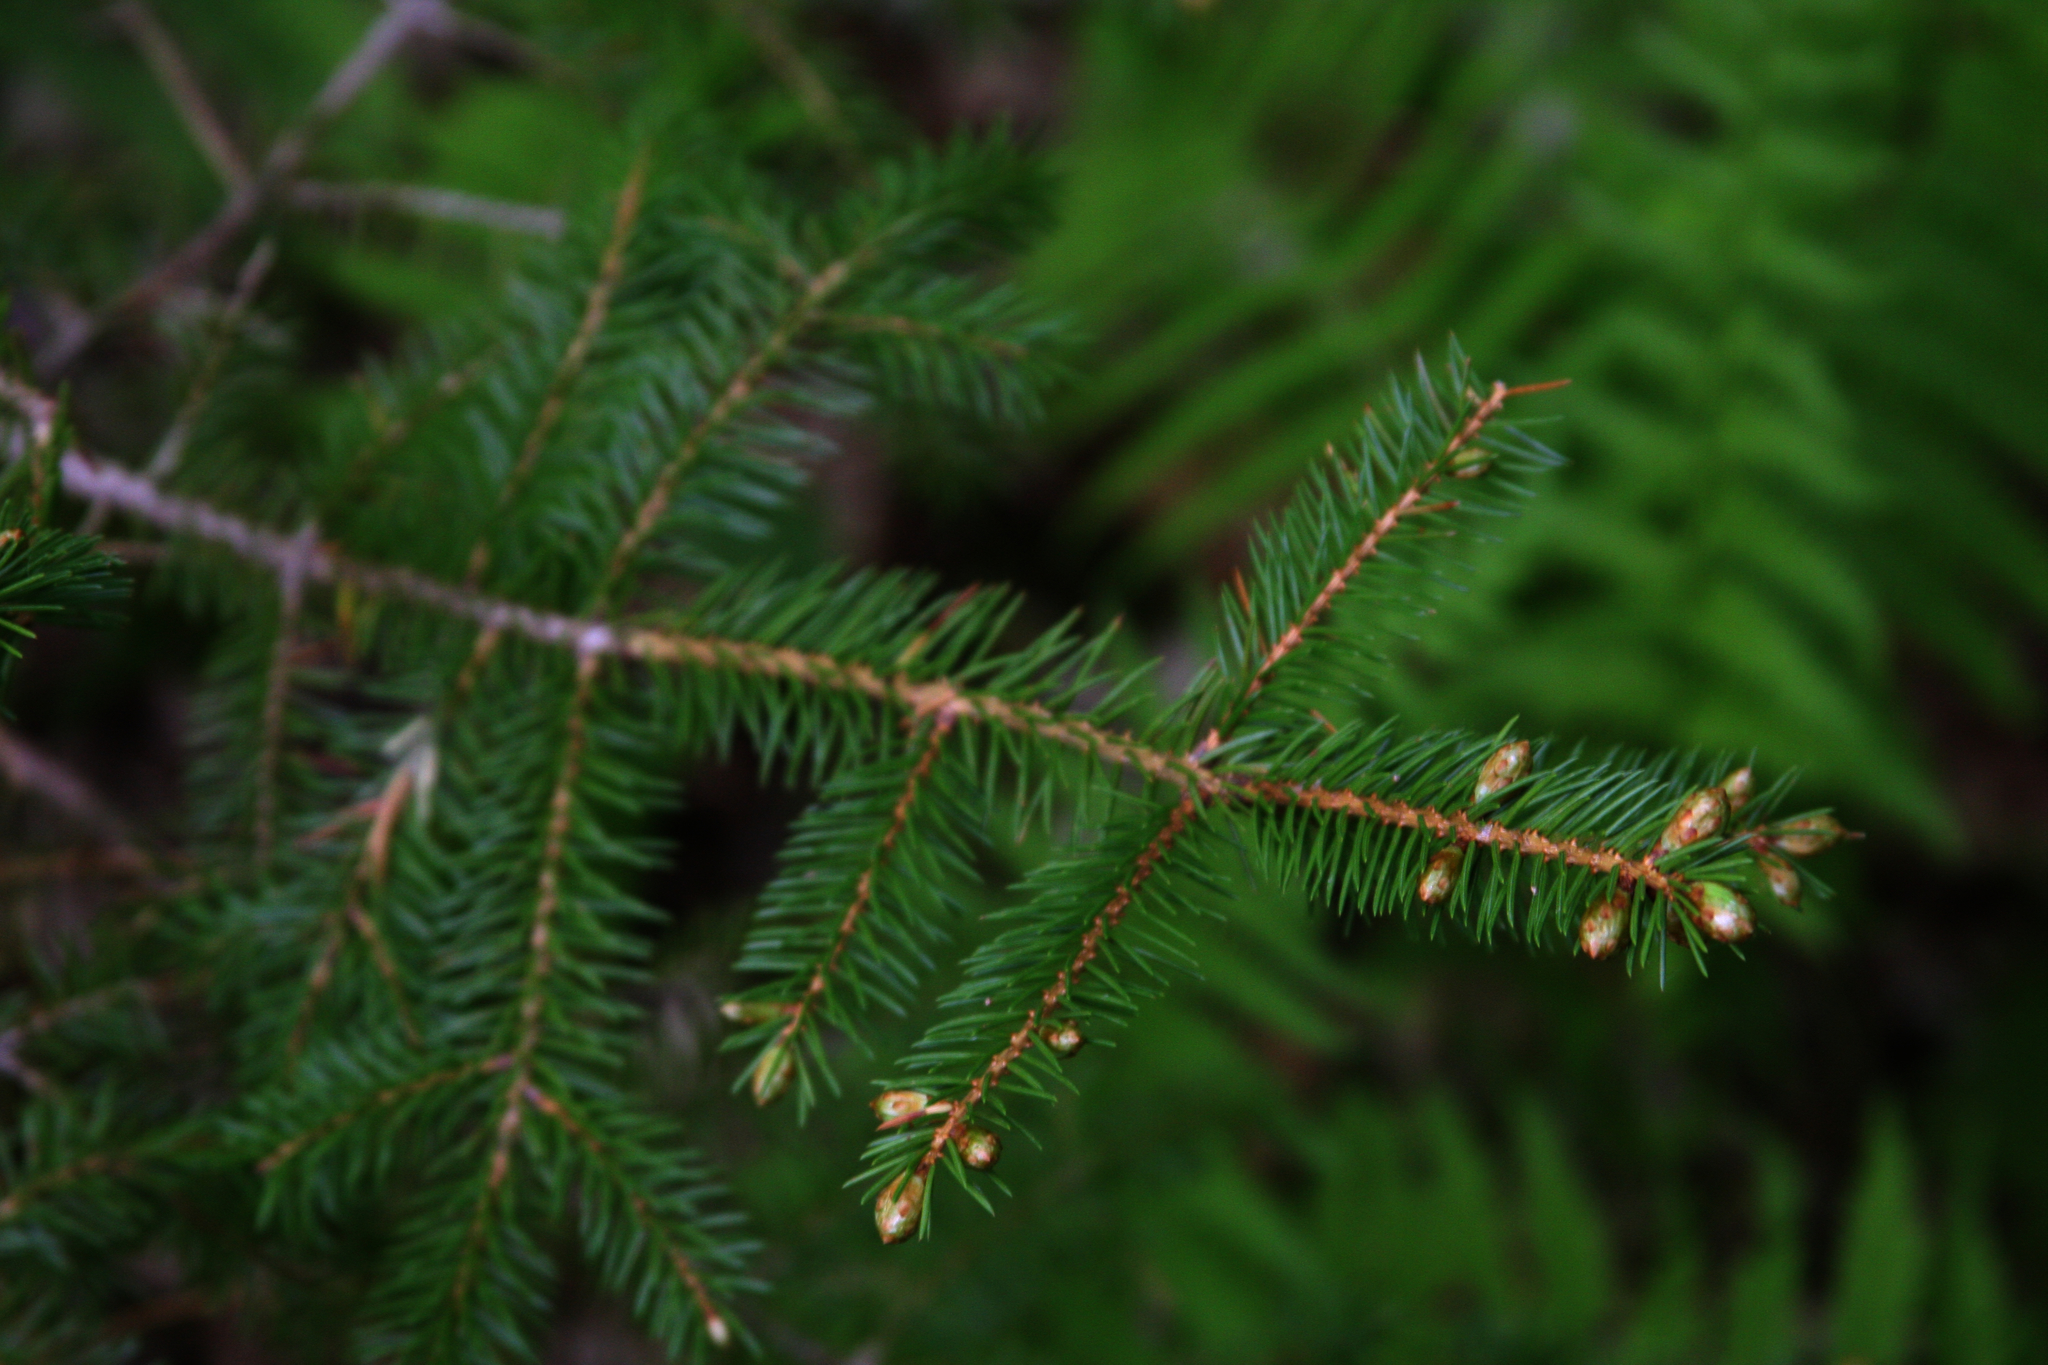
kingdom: Plantae
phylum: Tracheophyta
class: Pinopsida
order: Pinales
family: Pinaceae
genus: Picea
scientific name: Picea rubens
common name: Red spruce
